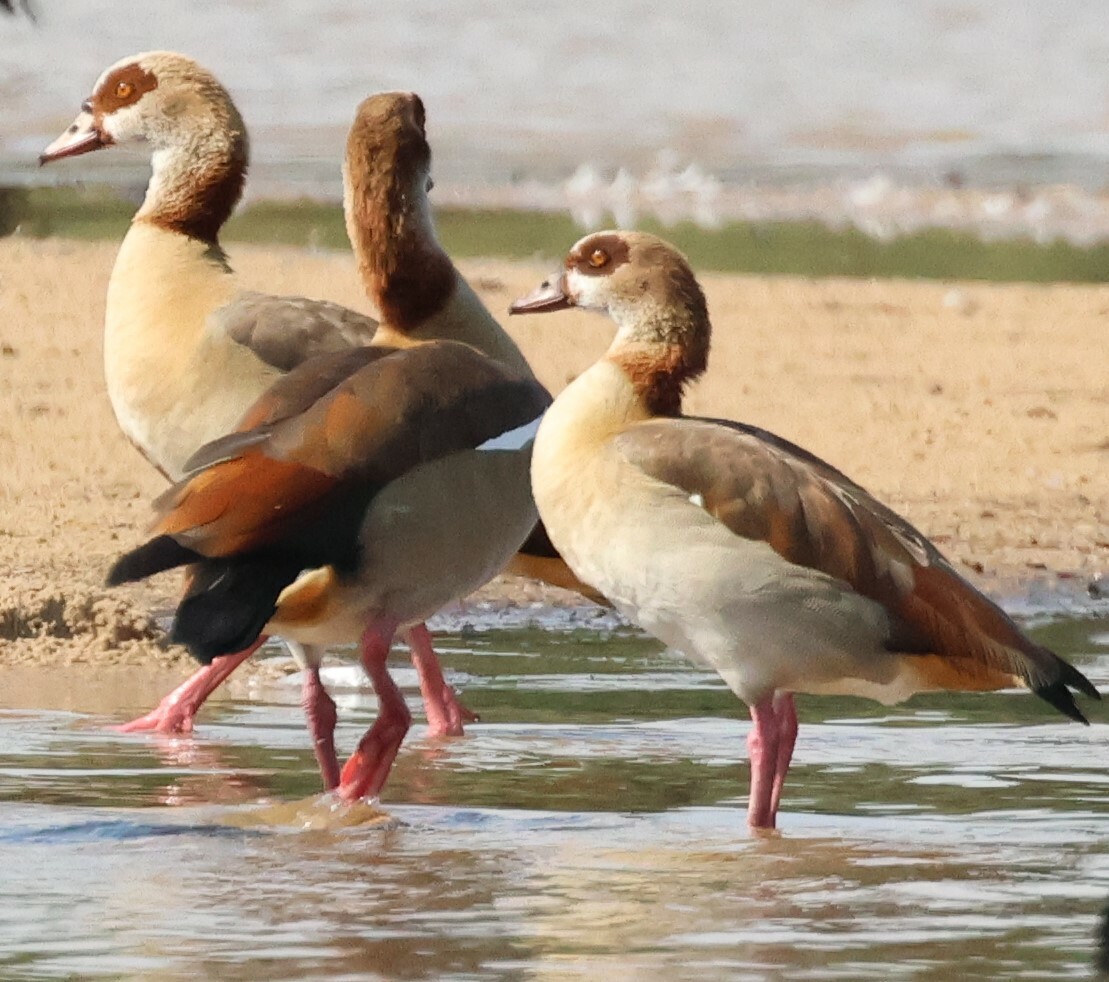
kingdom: Animalia
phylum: Chordata
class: Aves
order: Anseriformes
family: Anatidae
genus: Alopochen
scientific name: Alopochen aegyptiaca
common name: Egyptian goose
